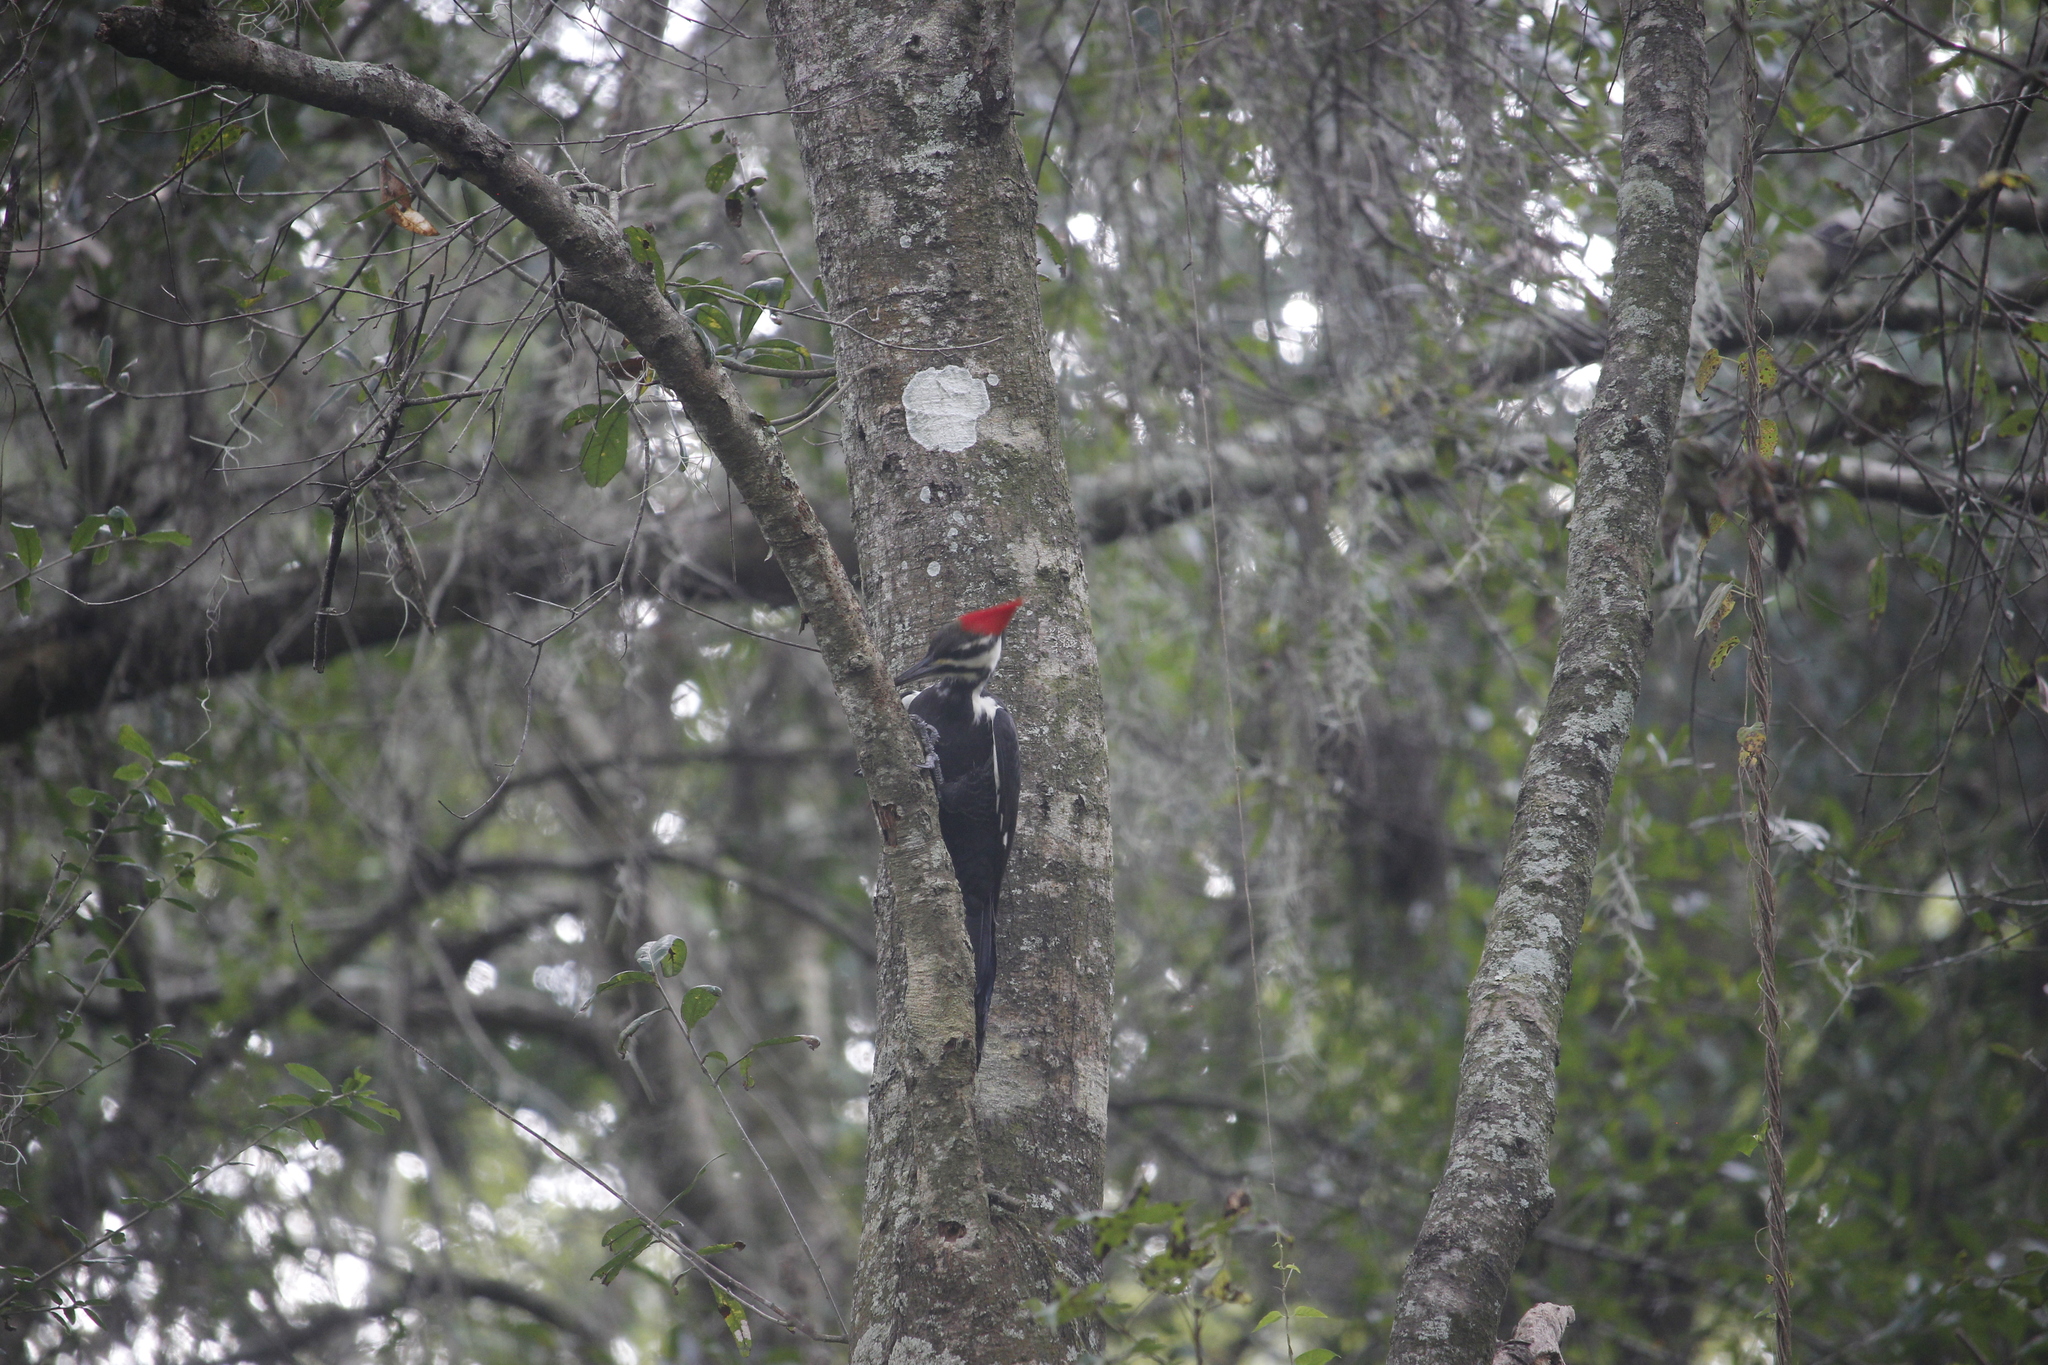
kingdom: Animalia
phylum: Chordata
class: Aves
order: Piciformes
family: Picidae
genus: Dryocopus
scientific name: Dryocopus pileatus
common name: Pileated woodpecker
